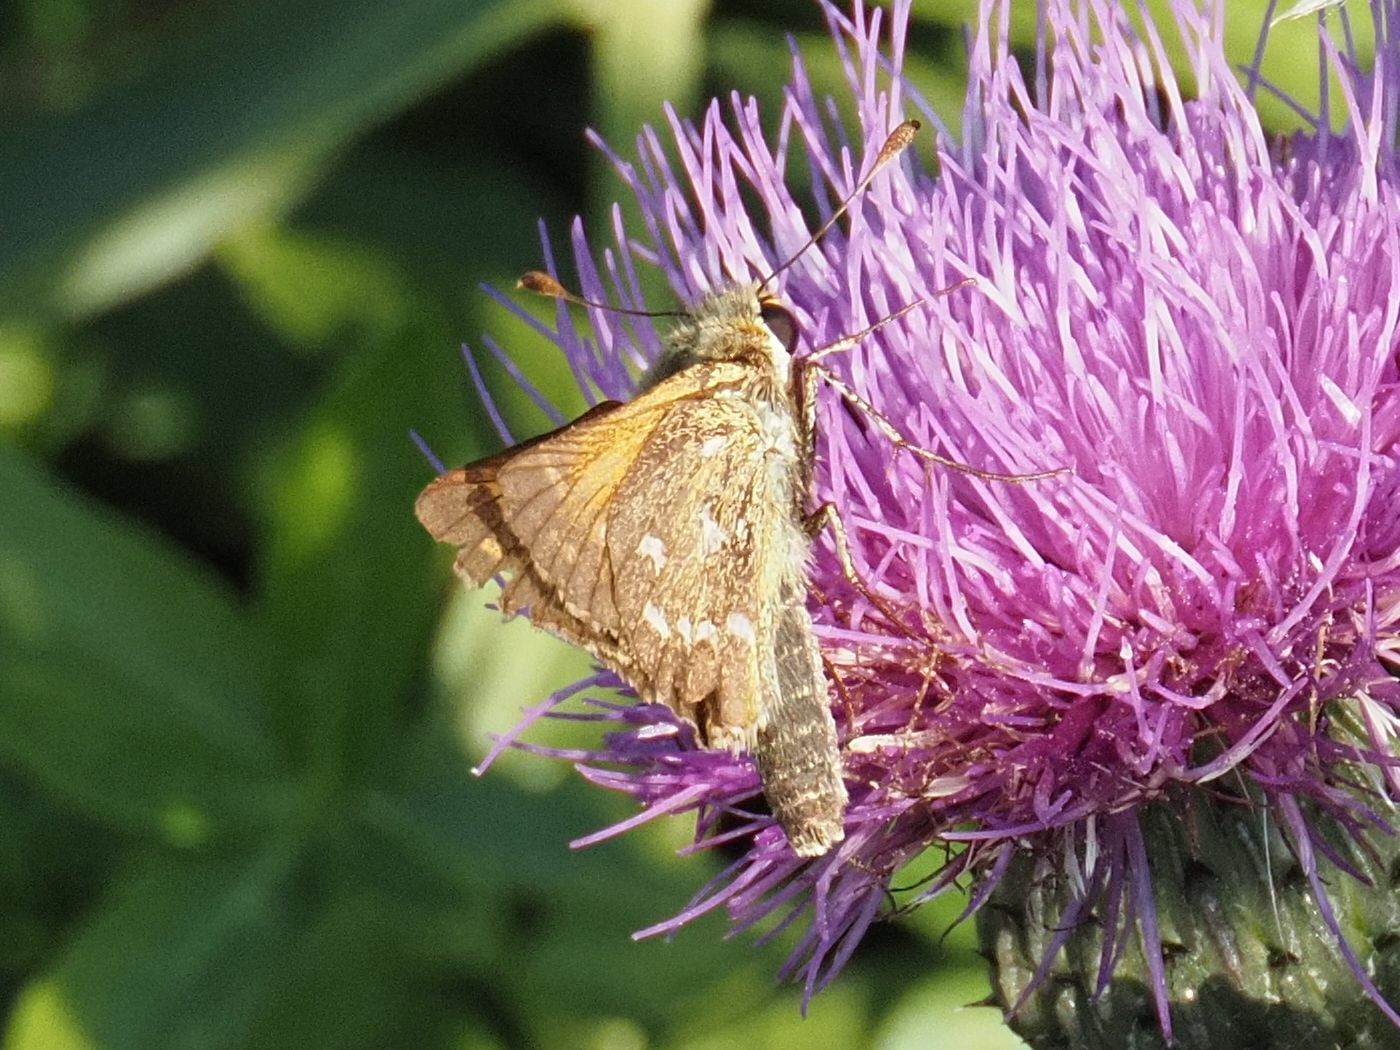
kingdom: Animalia
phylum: Arthropoda
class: Insecta
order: Lepidoptera
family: Hesperiidae
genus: Hesperia
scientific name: Hesperia comma
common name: Common branded skipper
